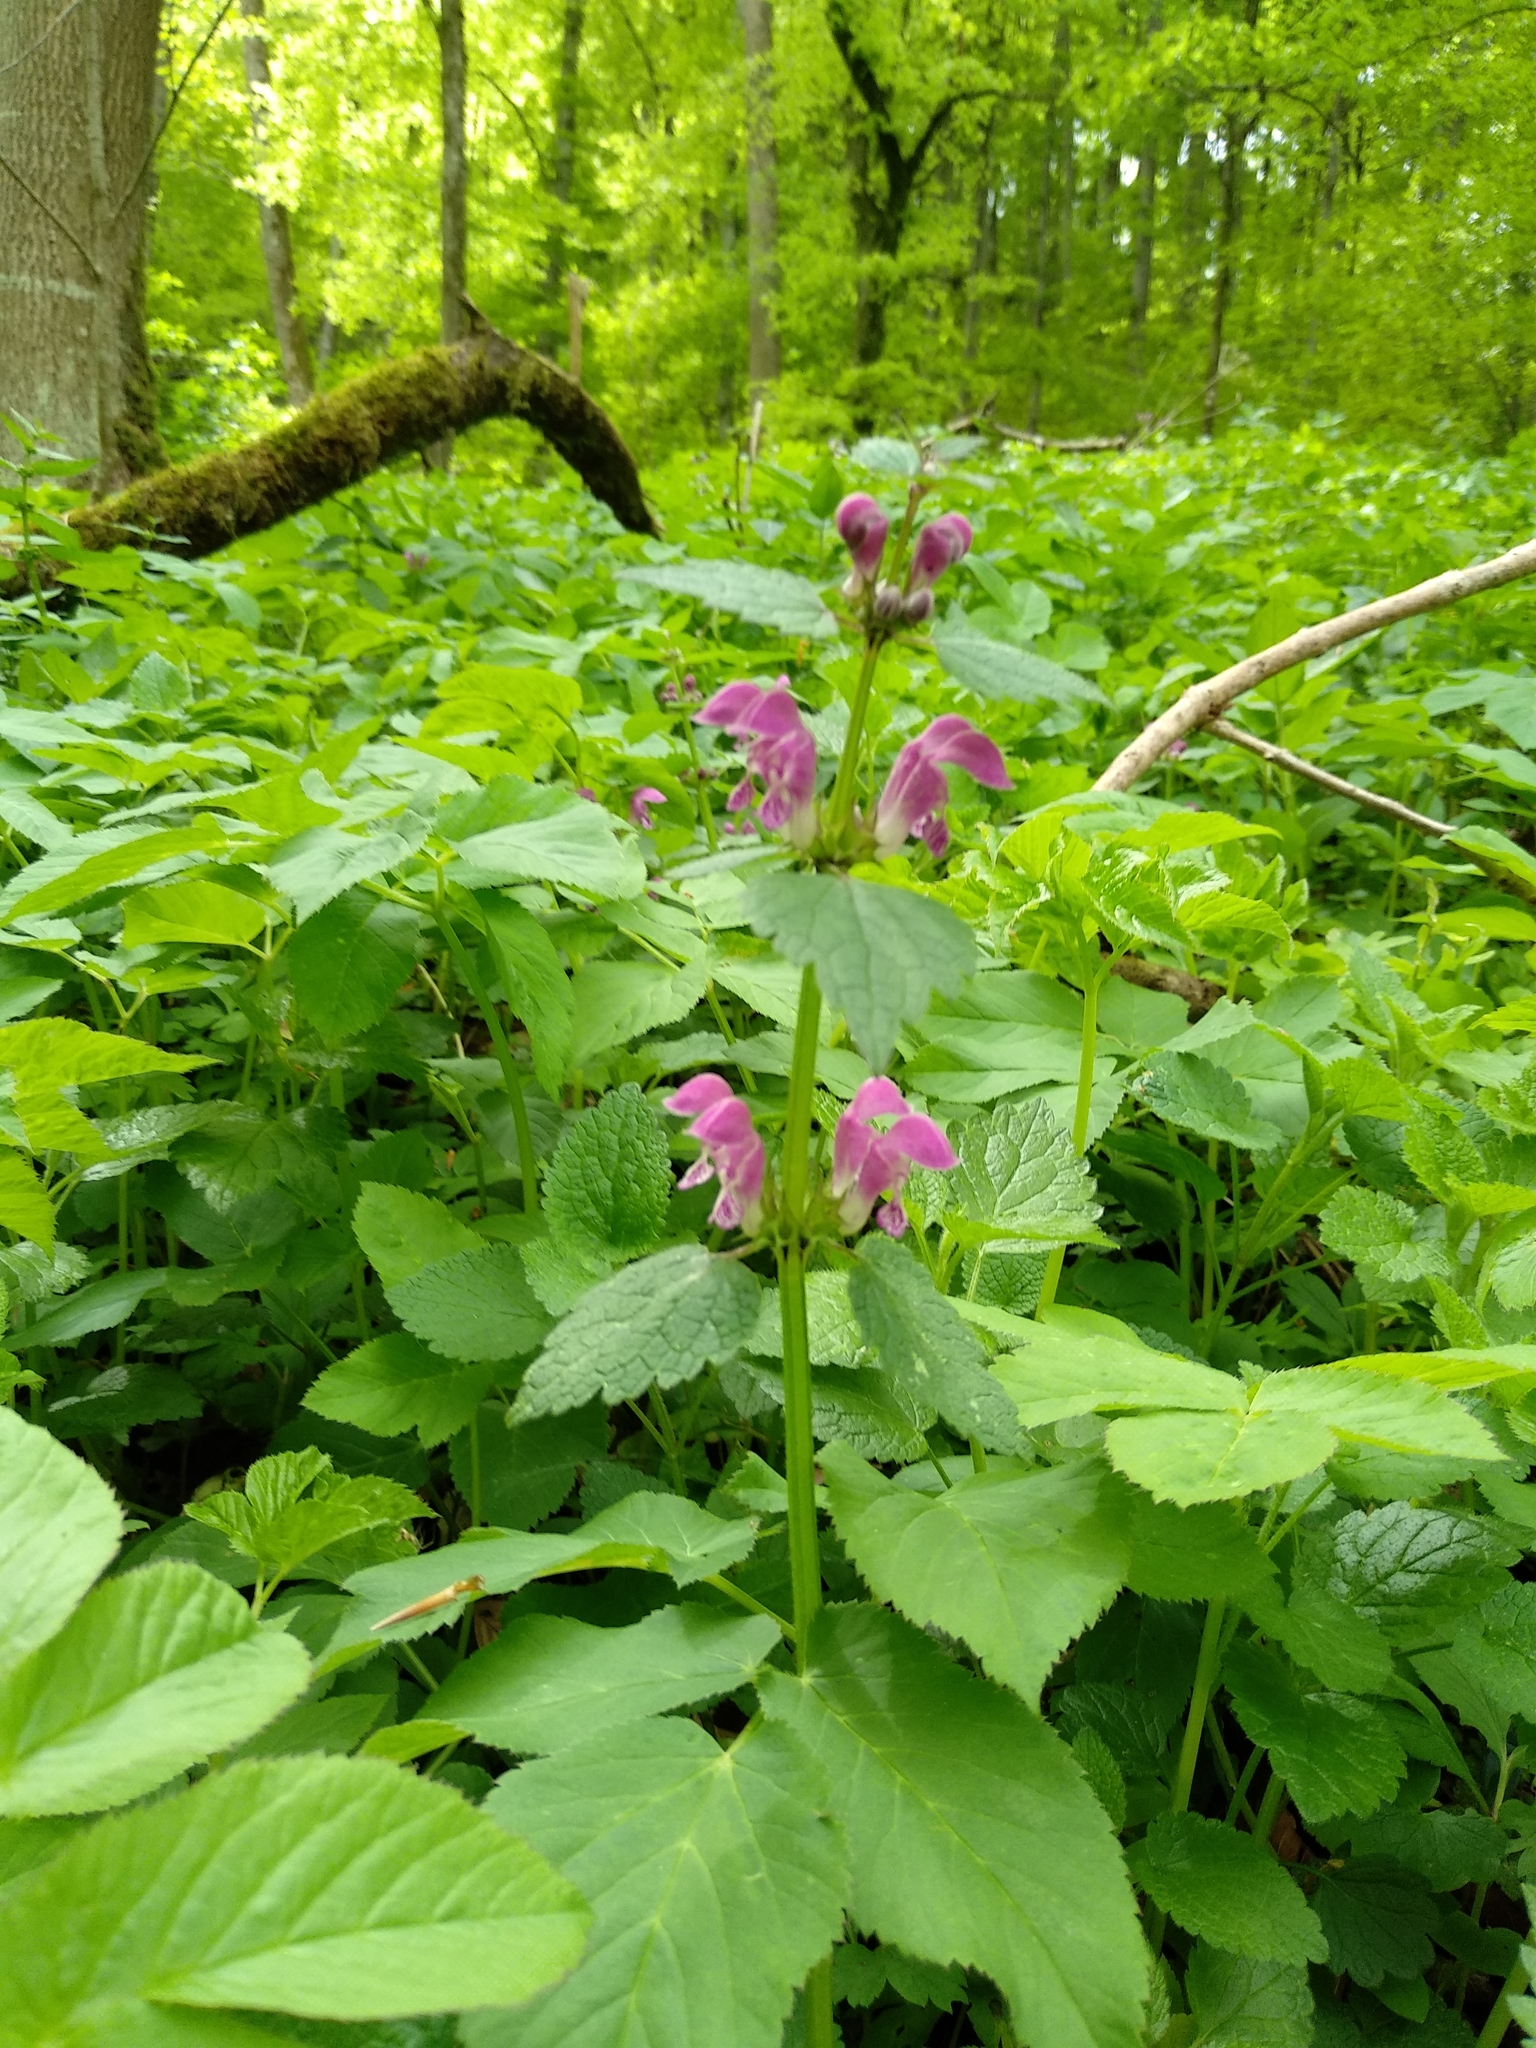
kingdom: Plantae
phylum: Tracheophyta
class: Magnoliopsida
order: Lamiales
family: Lamiaceae
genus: Lamium
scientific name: Lamium maculatum
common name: Spotted dead-nettle
